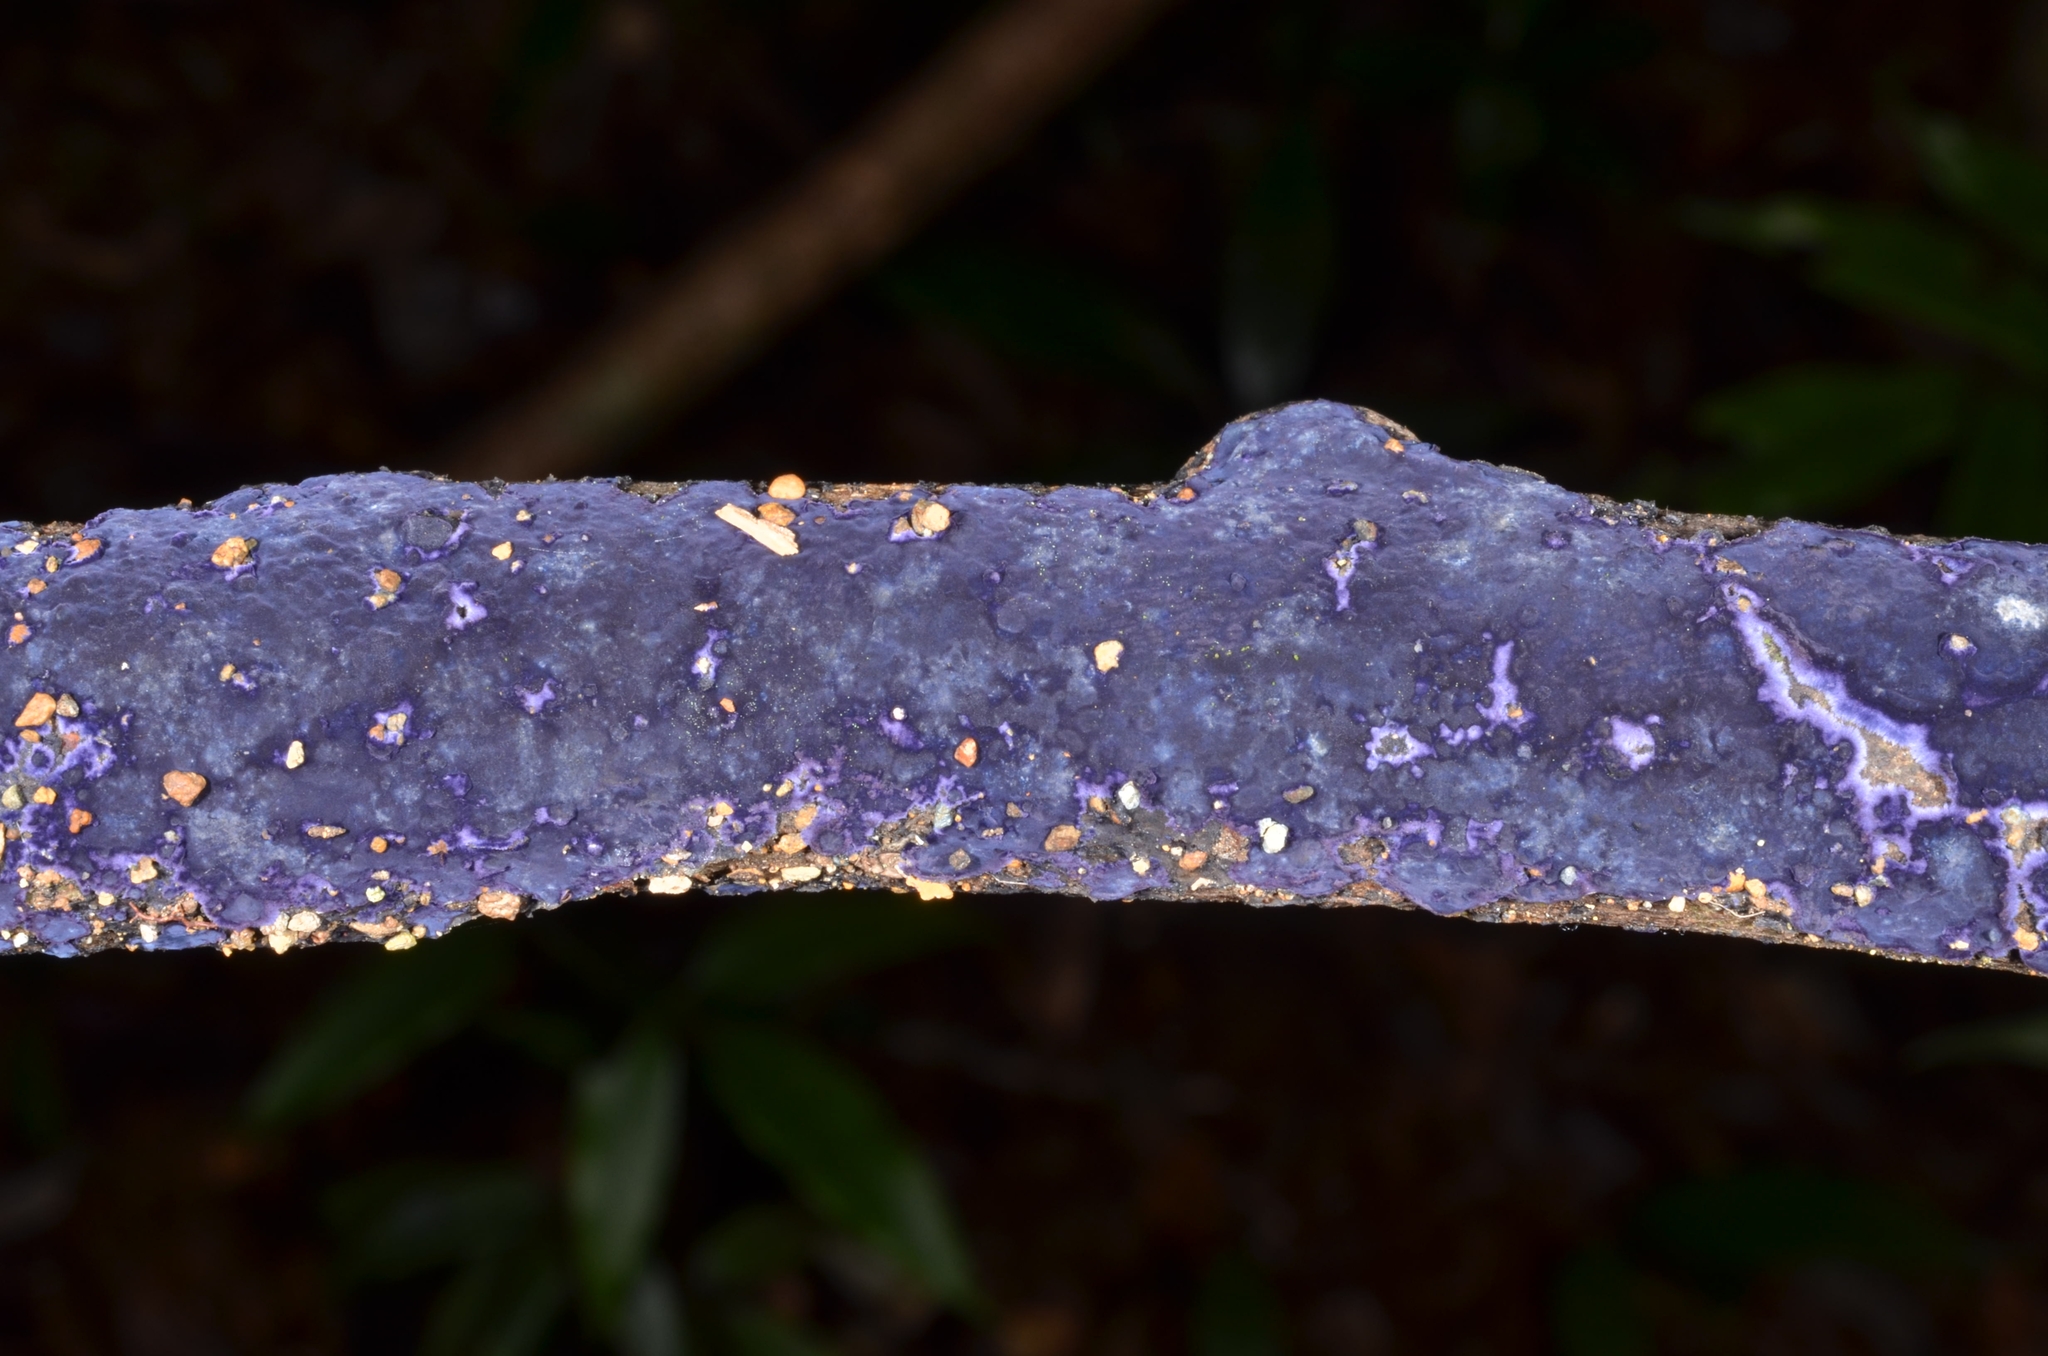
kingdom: Fungi
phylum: Basidiomycota
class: Agaricomycetes
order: Polyporales
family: Phanerochaetaceae
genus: Terana
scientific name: Terana coerulea
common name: Cobalt crust
